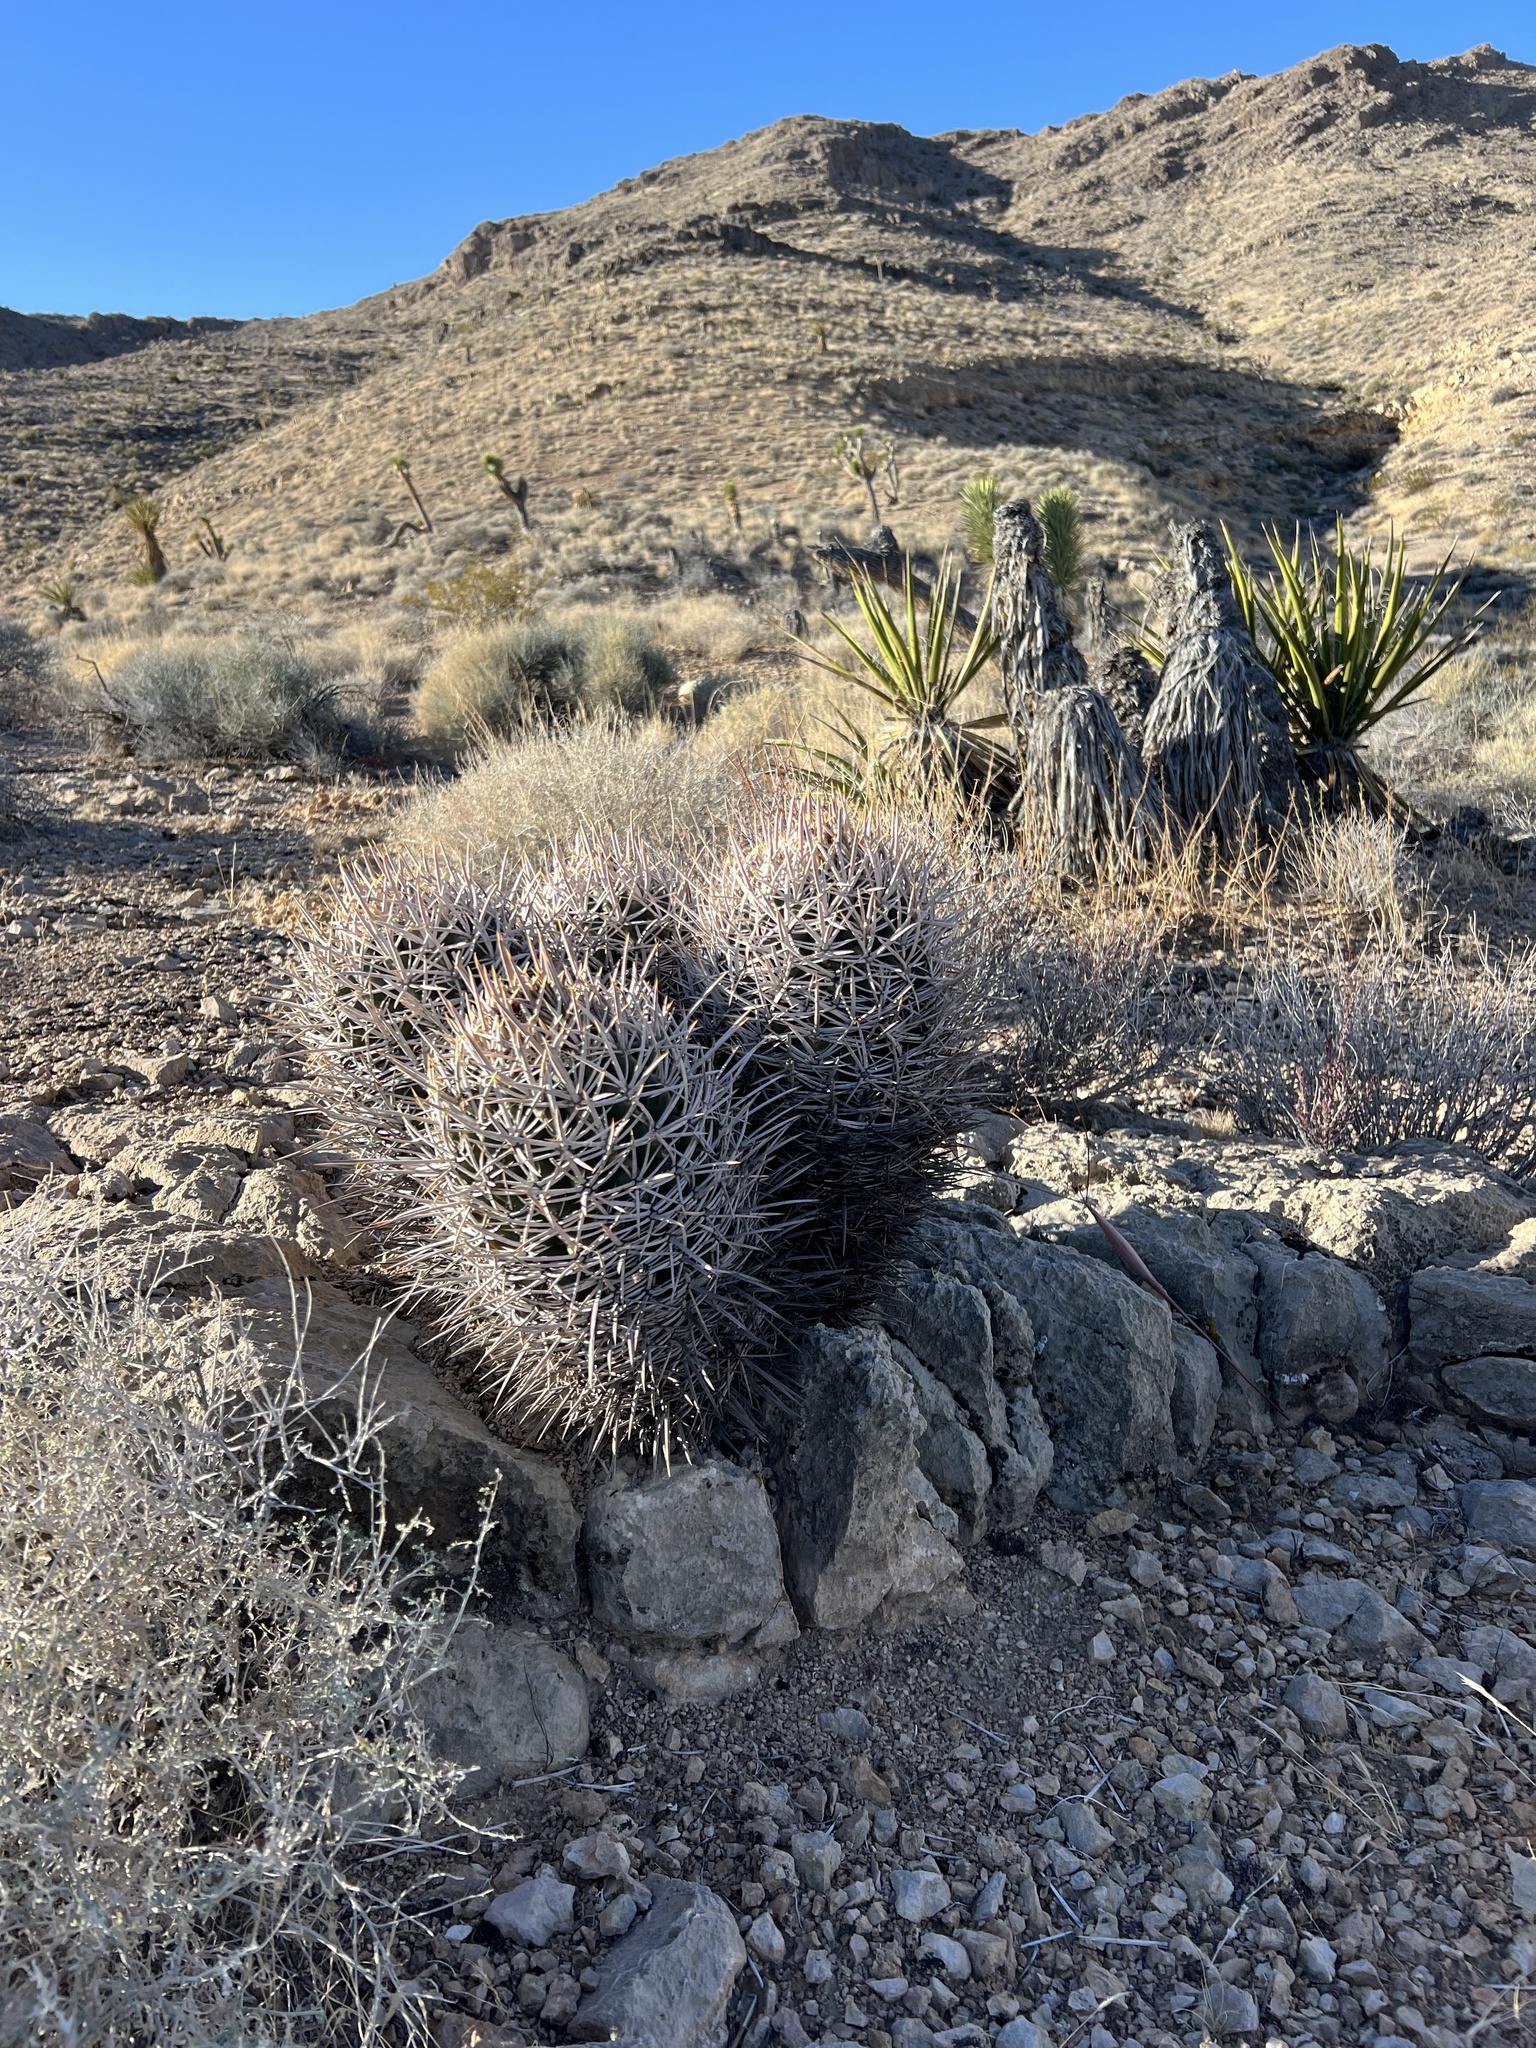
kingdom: Plantae
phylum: Tracheophyta
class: Magnoliopsida
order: Caryophyllales
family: Cactaceae
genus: Echinocactus
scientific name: Echinocactus polycephalus
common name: Cottontop cactus
